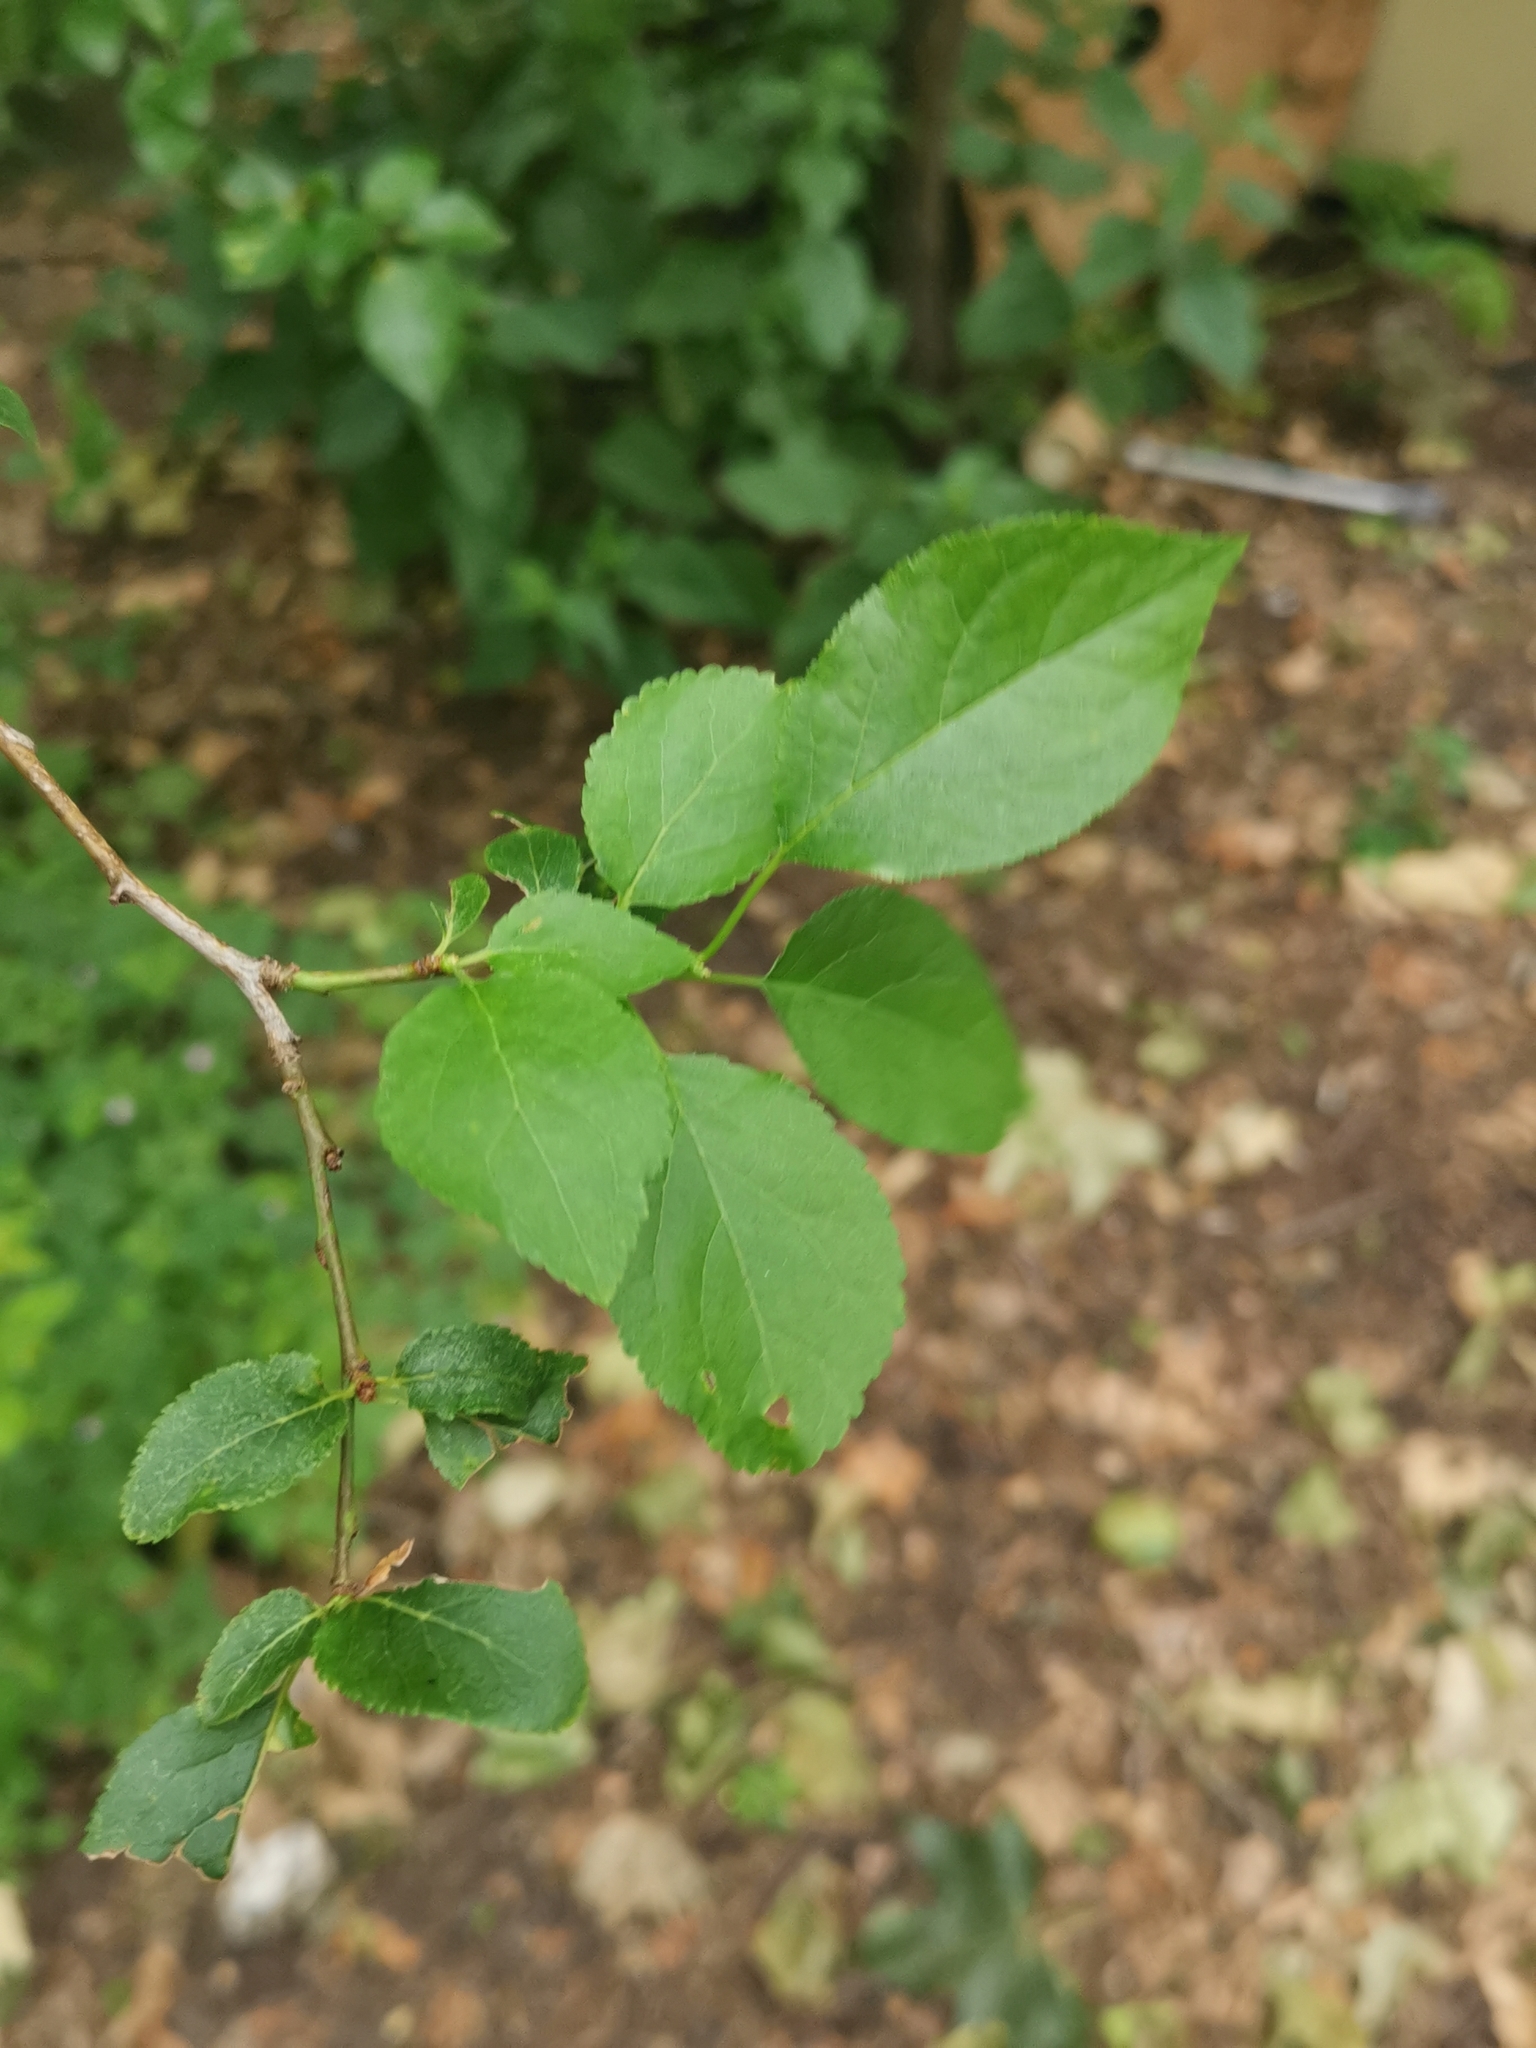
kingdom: Plantae
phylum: Tracheophyta
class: Magnoliopsida
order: Rosales
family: Rosaceae
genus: Prunus
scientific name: Prunus cerasifera
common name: Cherry plum
